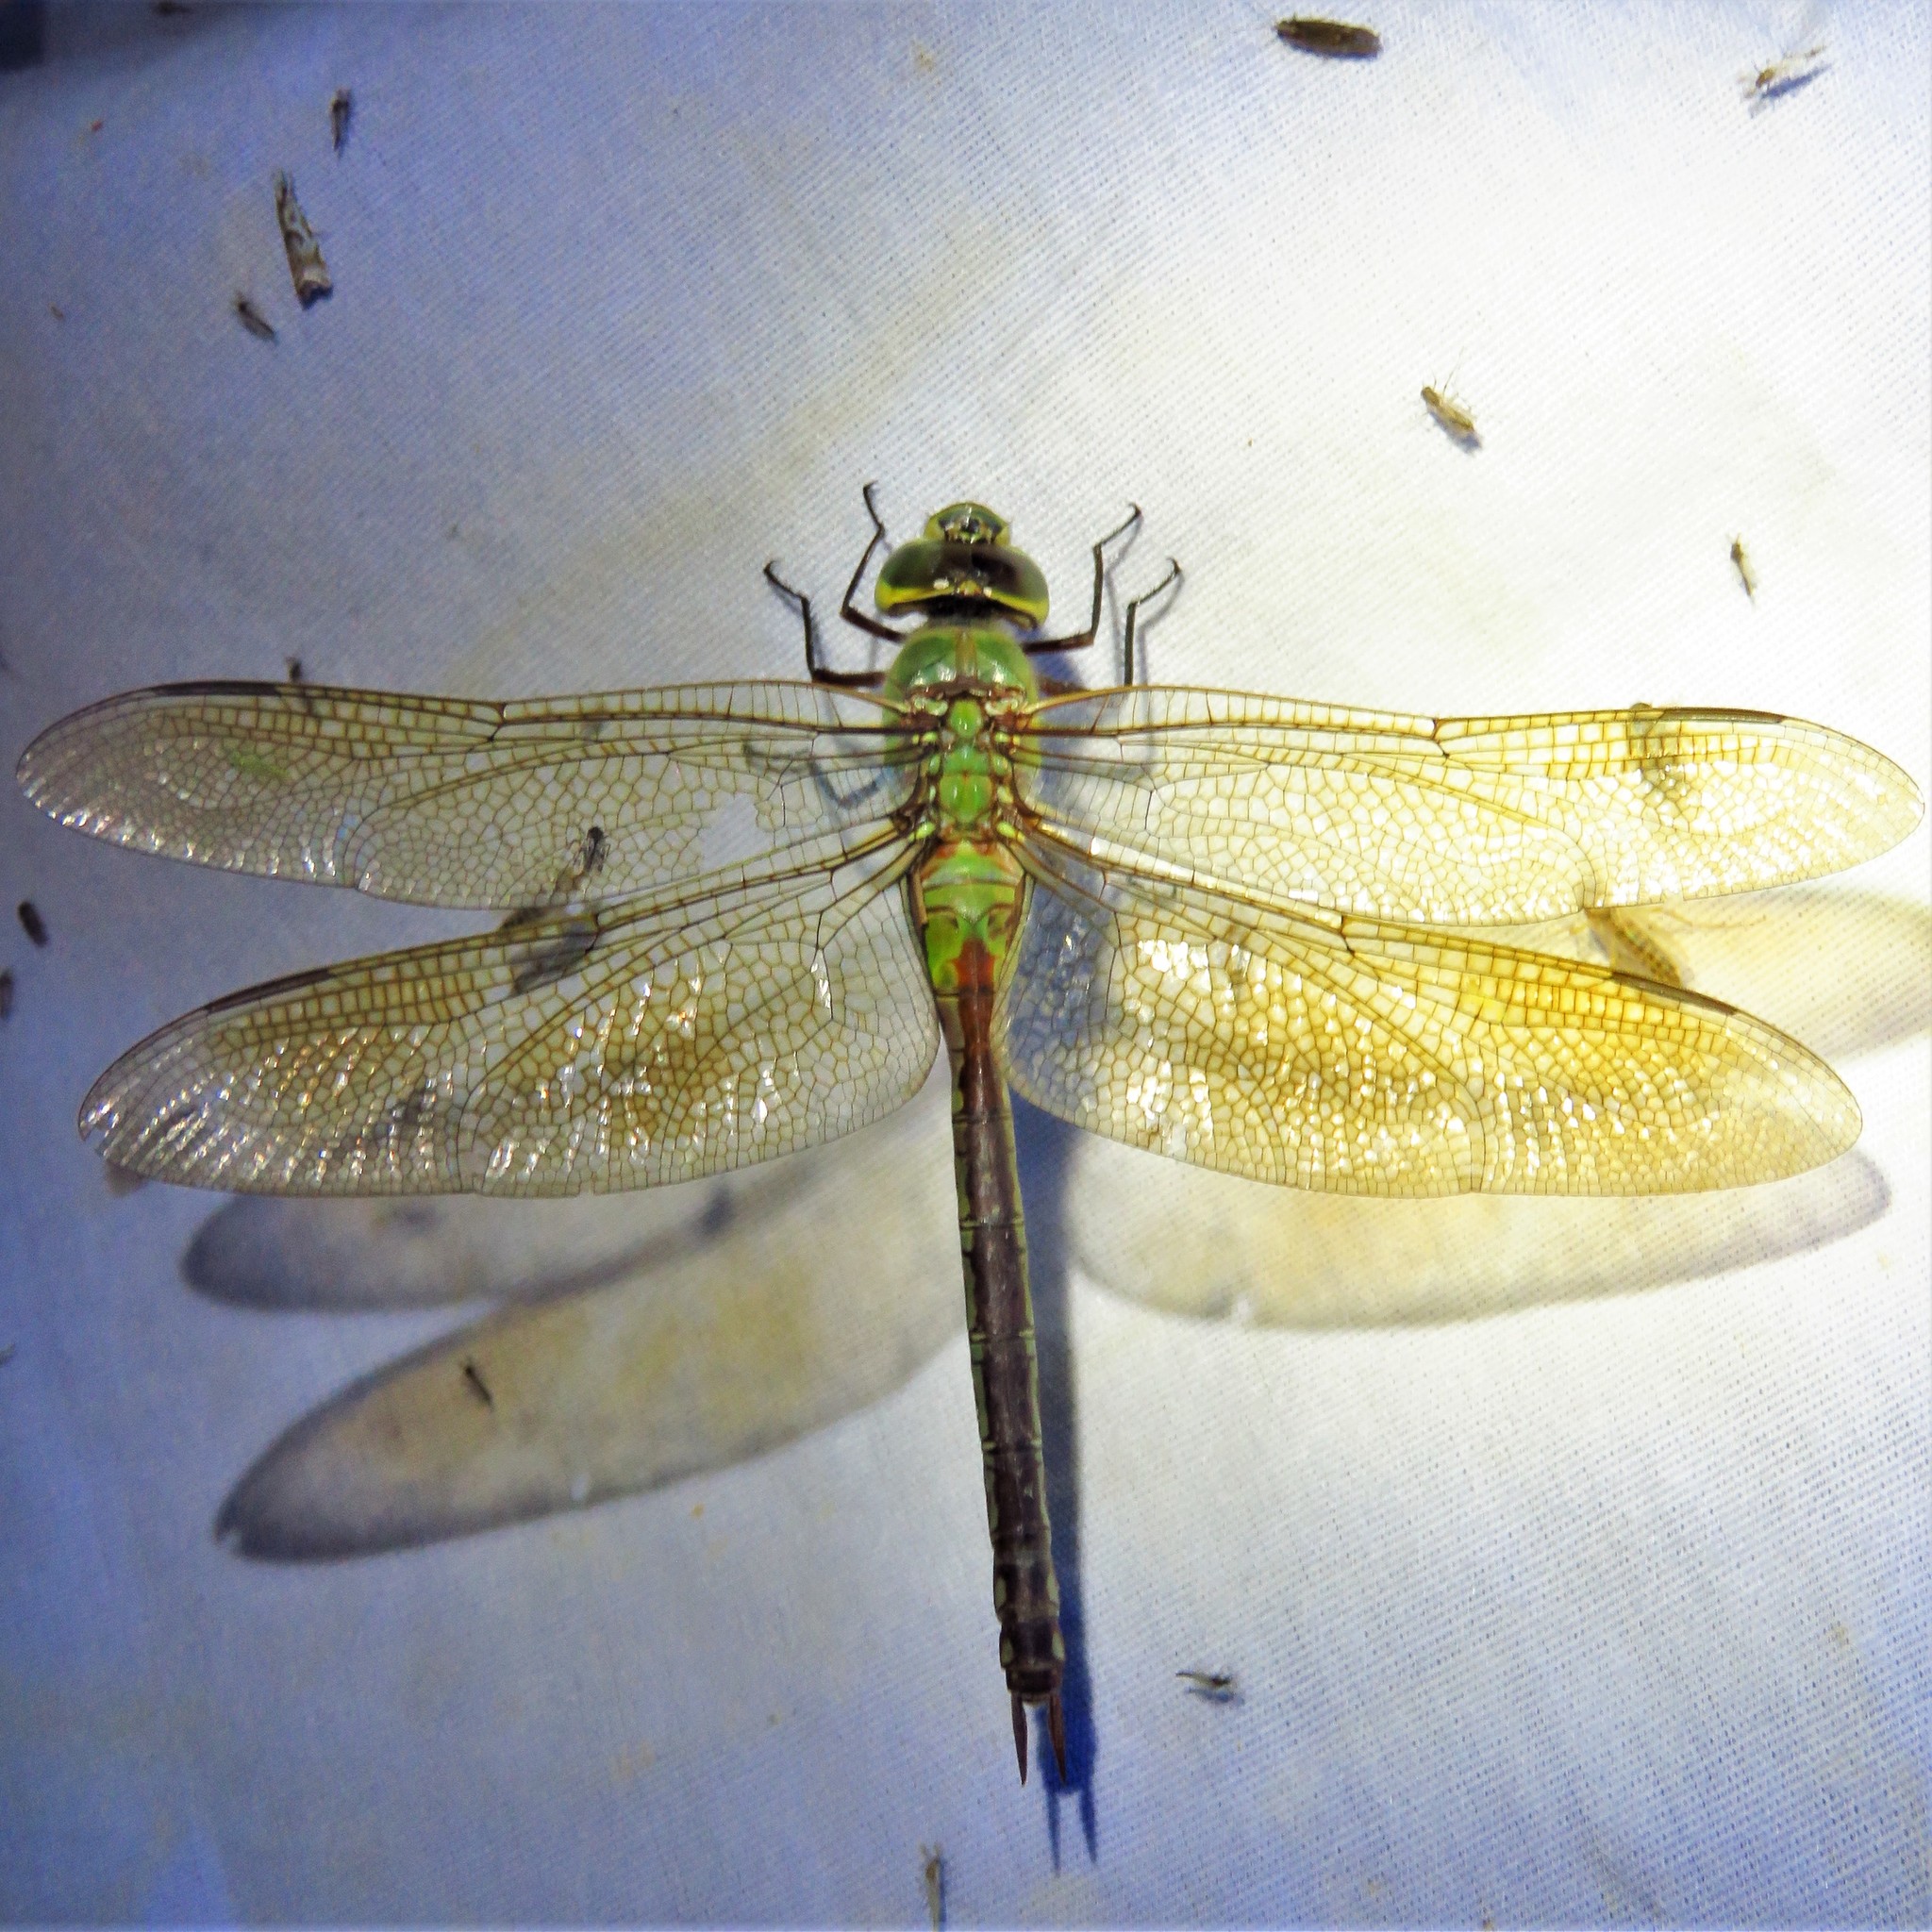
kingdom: Animalia
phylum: Arthropoda
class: Insecta
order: Odonata
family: Aeshnidae
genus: Anax
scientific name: Anax junius
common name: Common green darner
